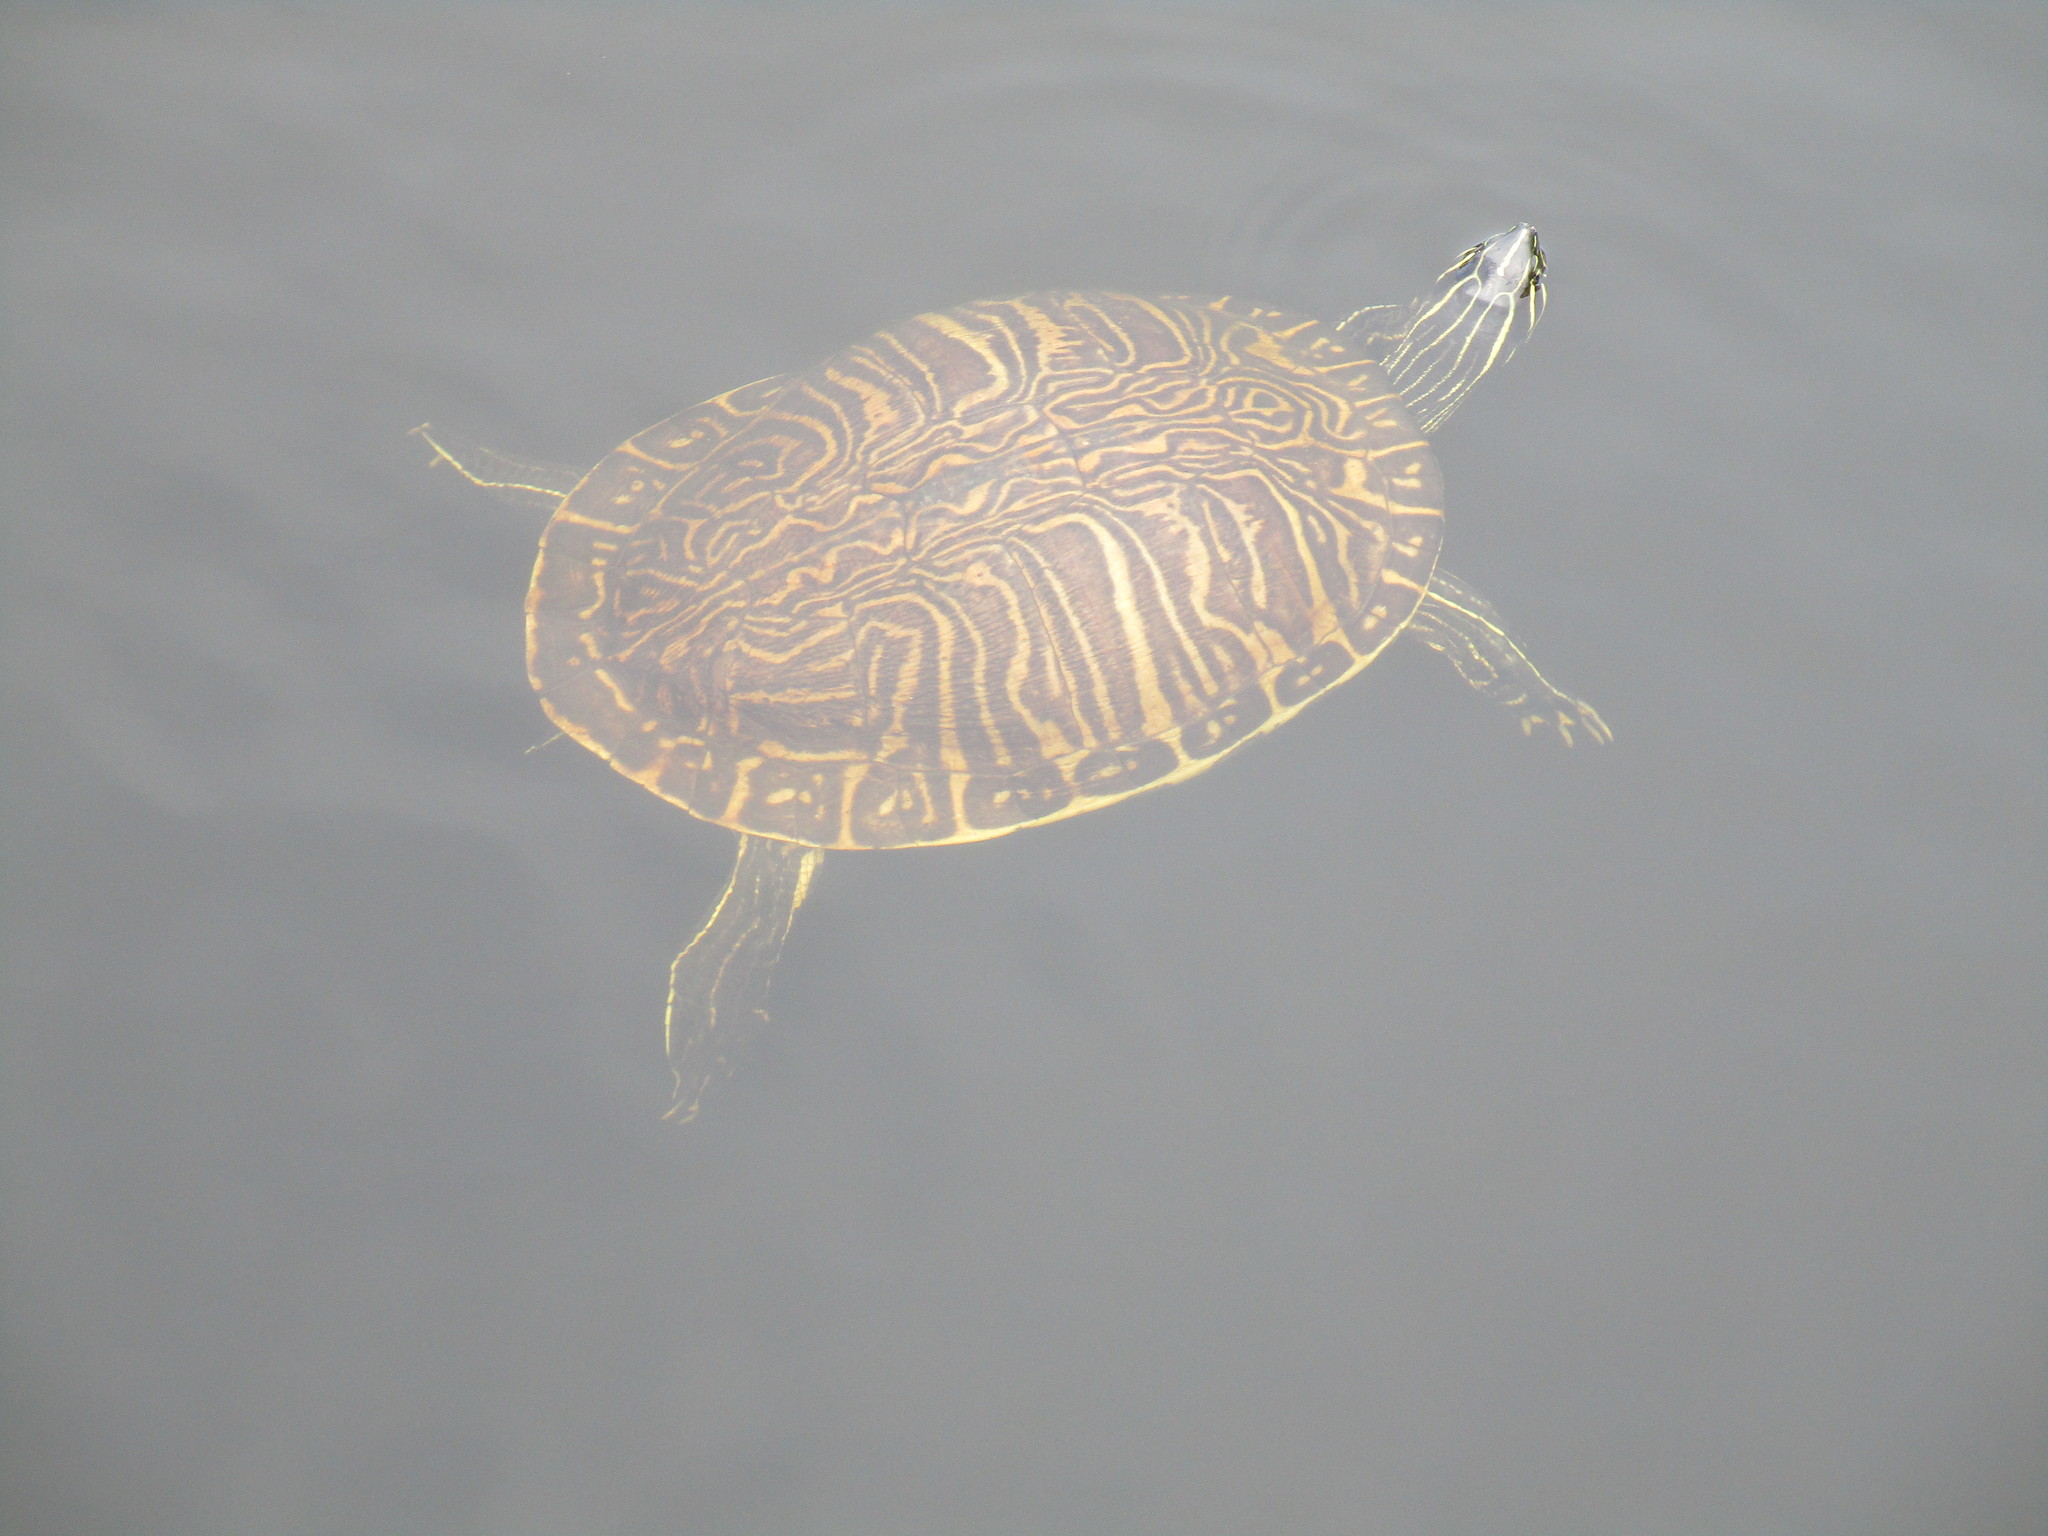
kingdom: Animalia
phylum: Chordata
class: Testudines
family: Emydidae
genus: Pseudemys
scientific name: Pseudemys peninsularis
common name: Peninsula cooter
